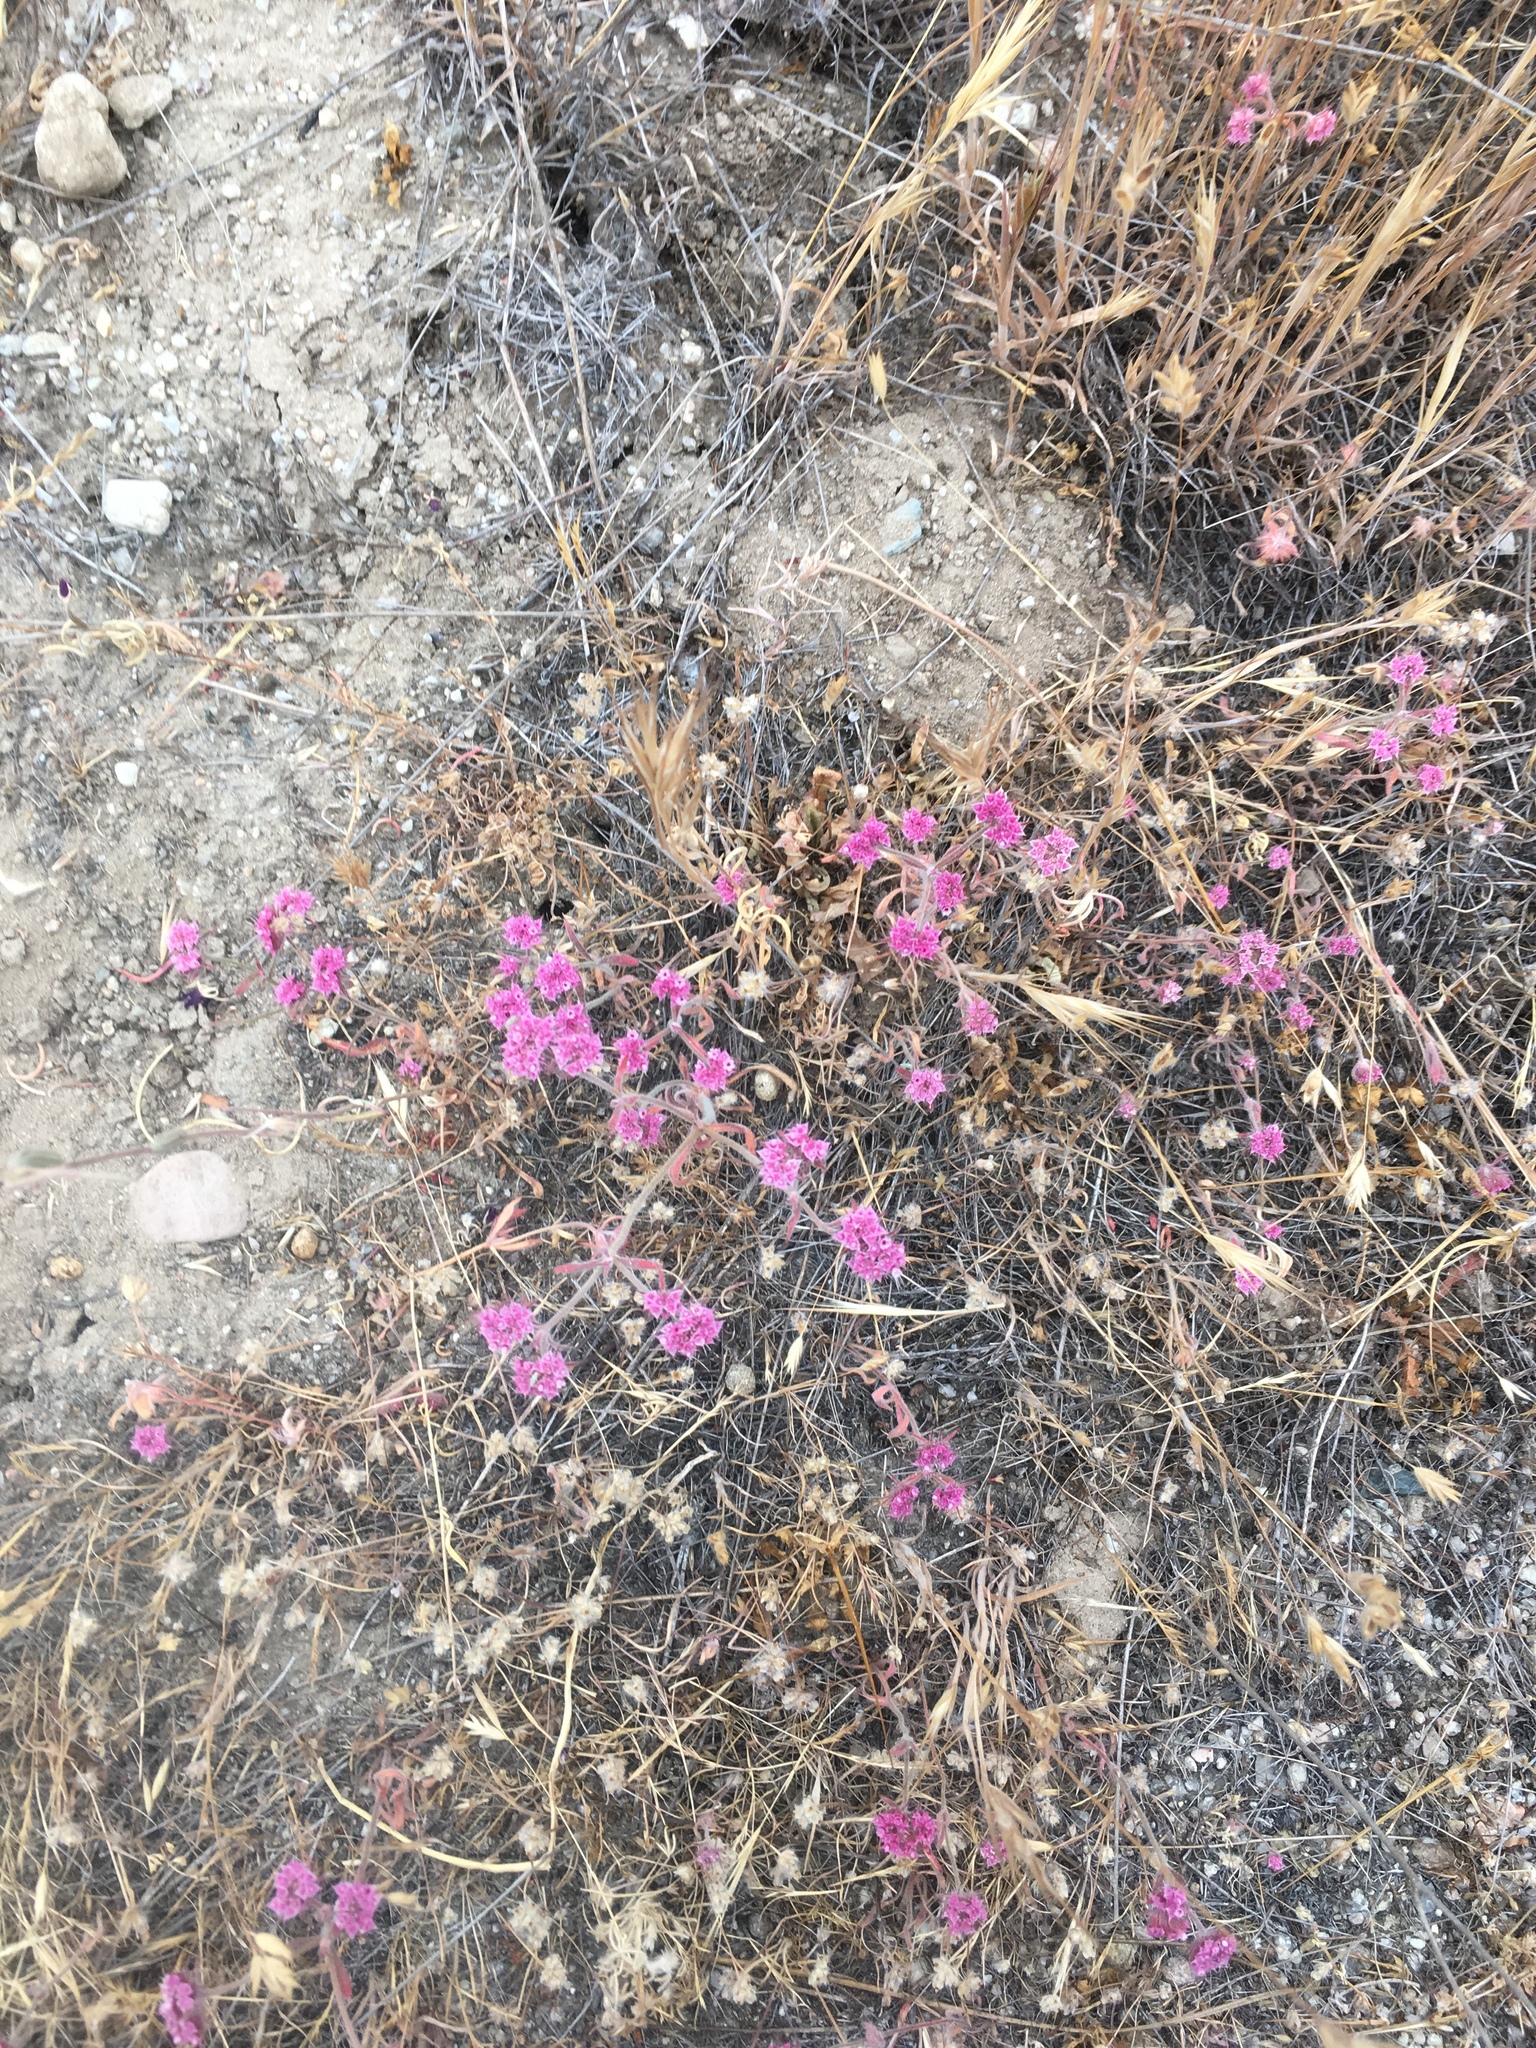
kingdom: Plantae
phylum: Tracheophyta
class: Magnoliopsida
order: Caryophyllales
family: Polygonaceae
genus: Chorizanthe
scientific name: Chorizanthe douglasii
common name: Douglas's spineflower
